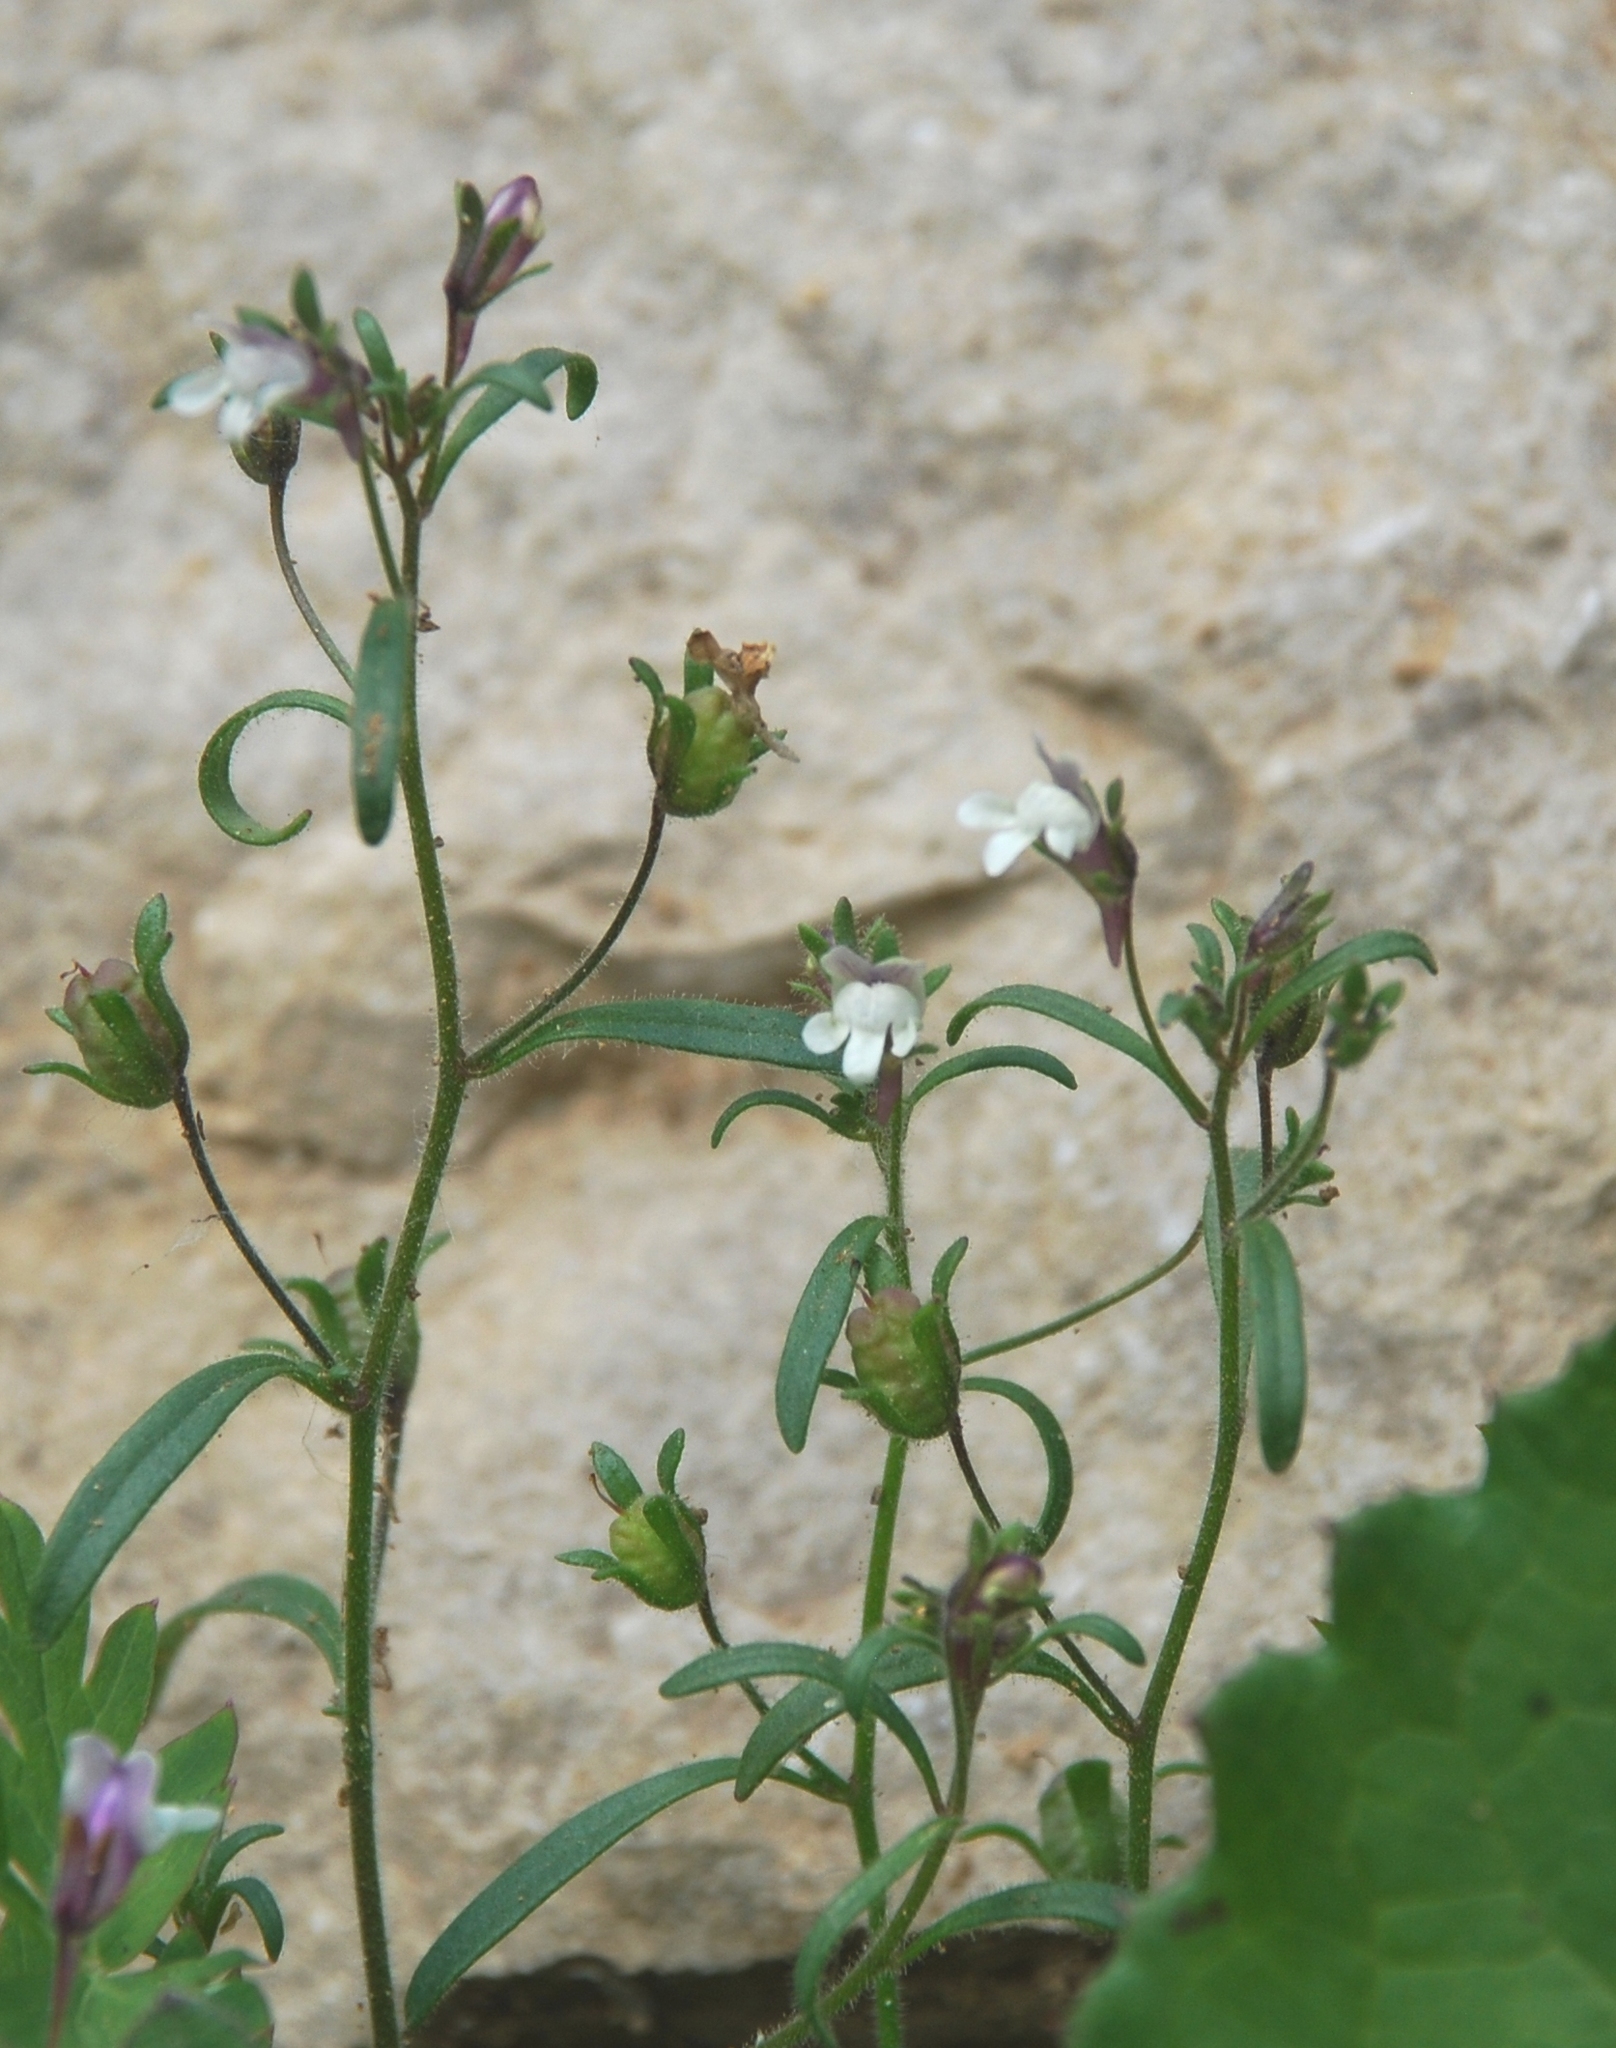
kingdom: Plantae
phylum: Tracheophyta
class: Magnoliopsida
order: Lamiales
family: Plantaginaceae
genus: Chaenorhinum
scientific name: Chaenorhinum minus
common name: Dwarf snapdragon
